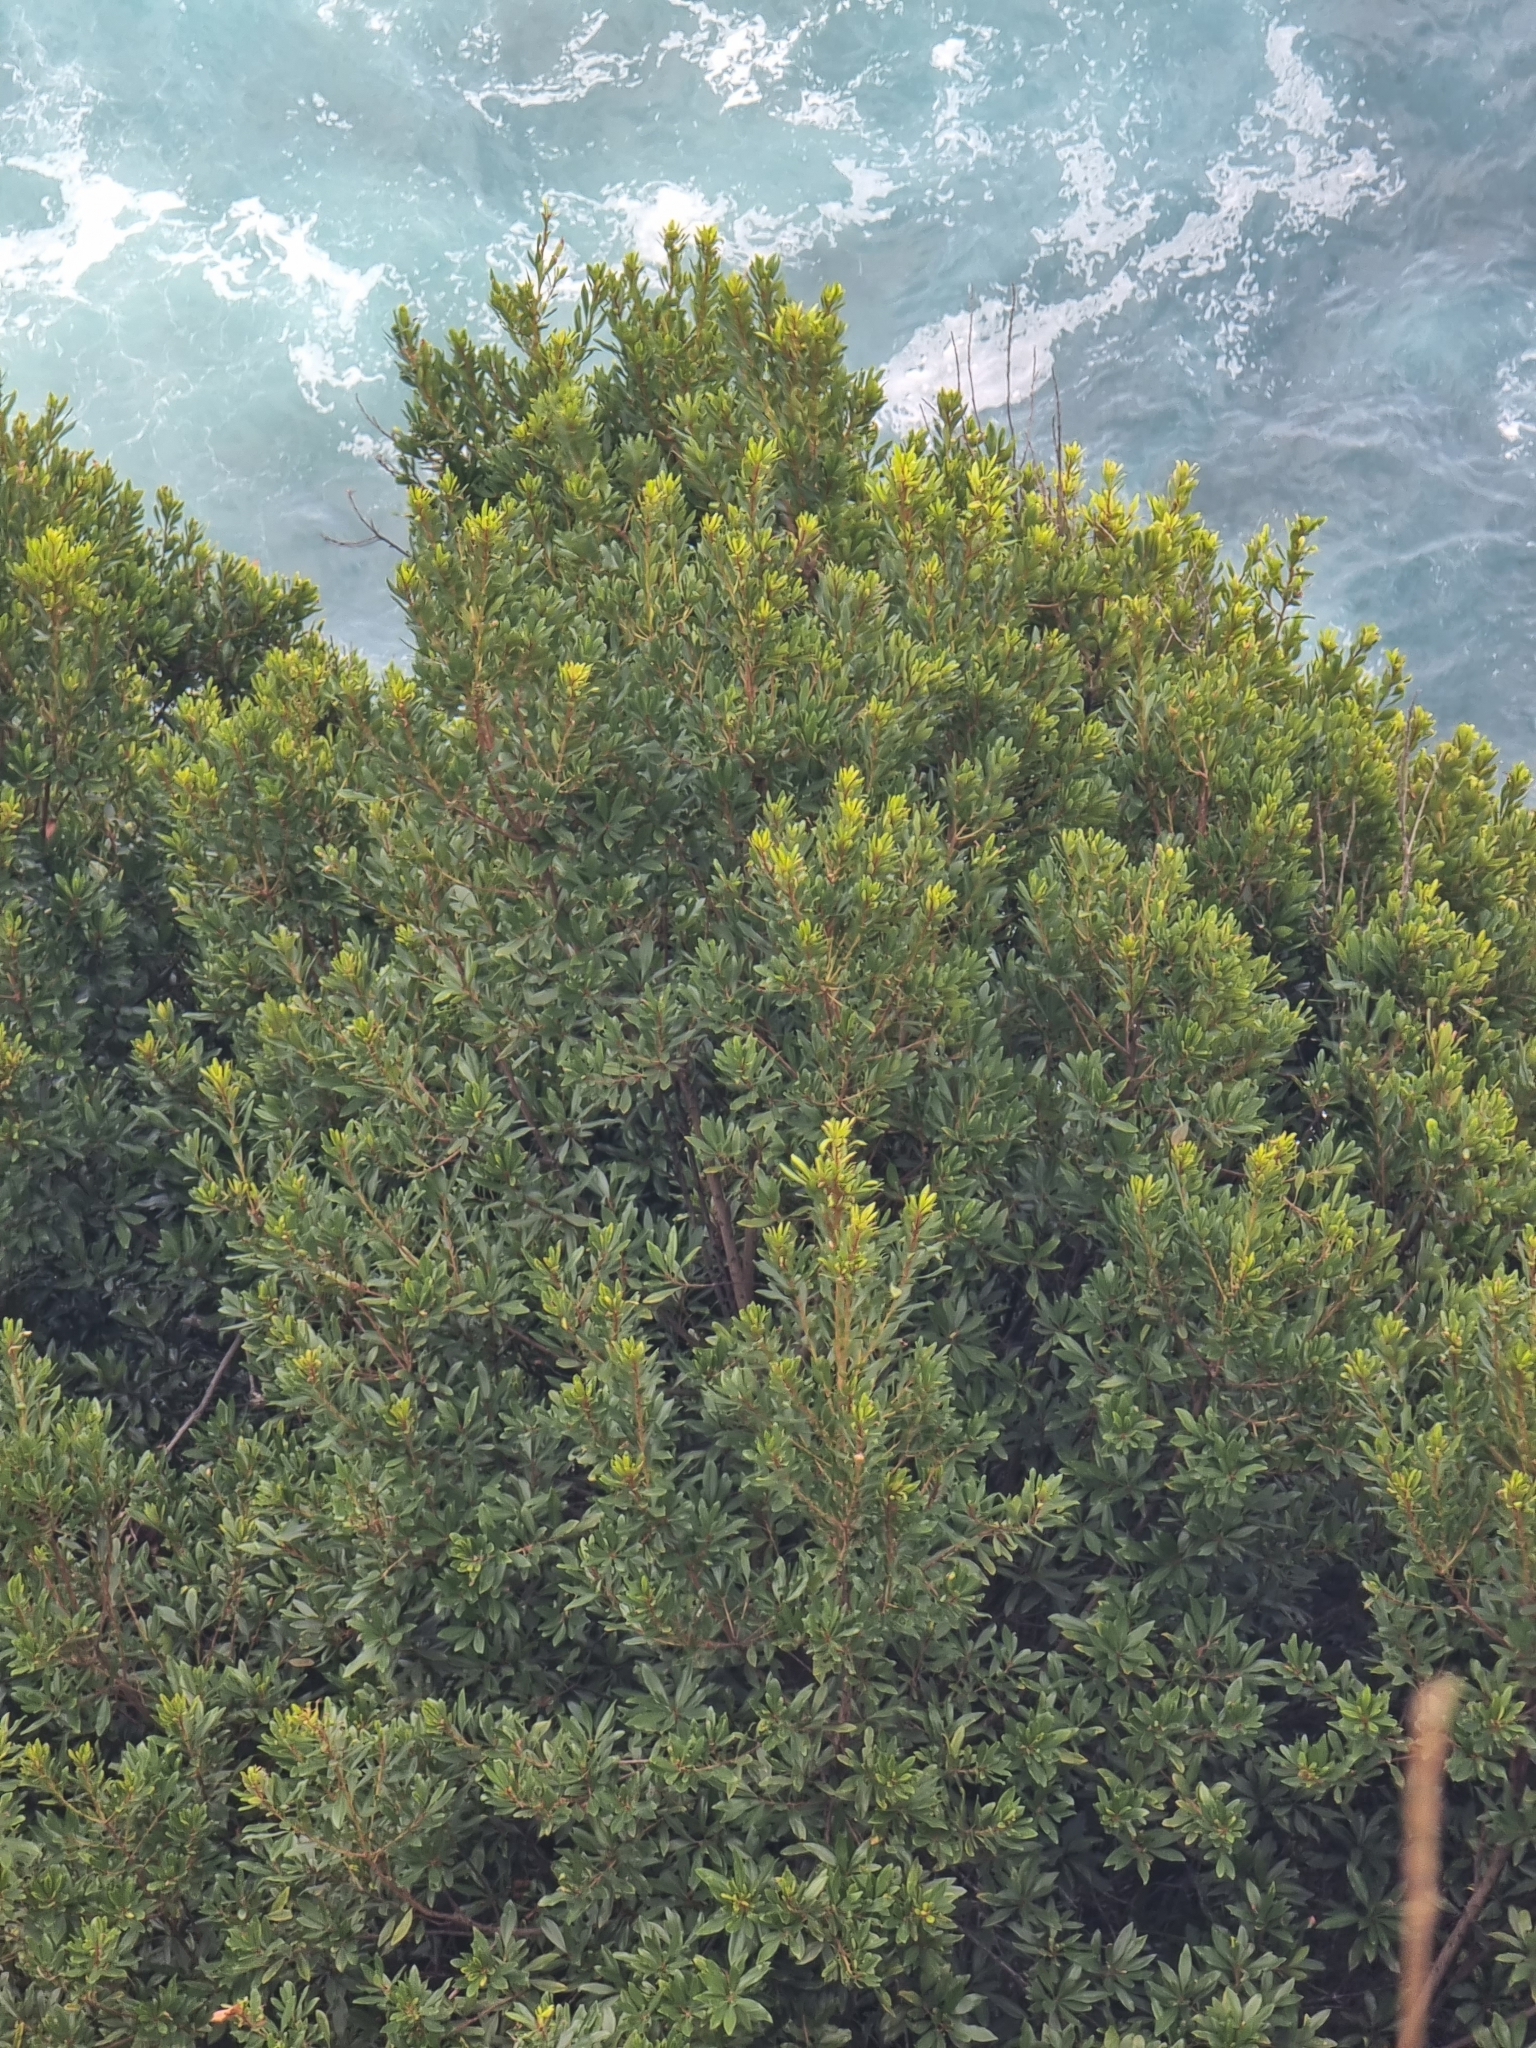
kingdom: Plantae
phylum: Tracheophyta
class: Magnoliopsida
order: Fagales
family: Myricaceae
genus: Morella
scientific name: Morella faya
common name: Firetree
